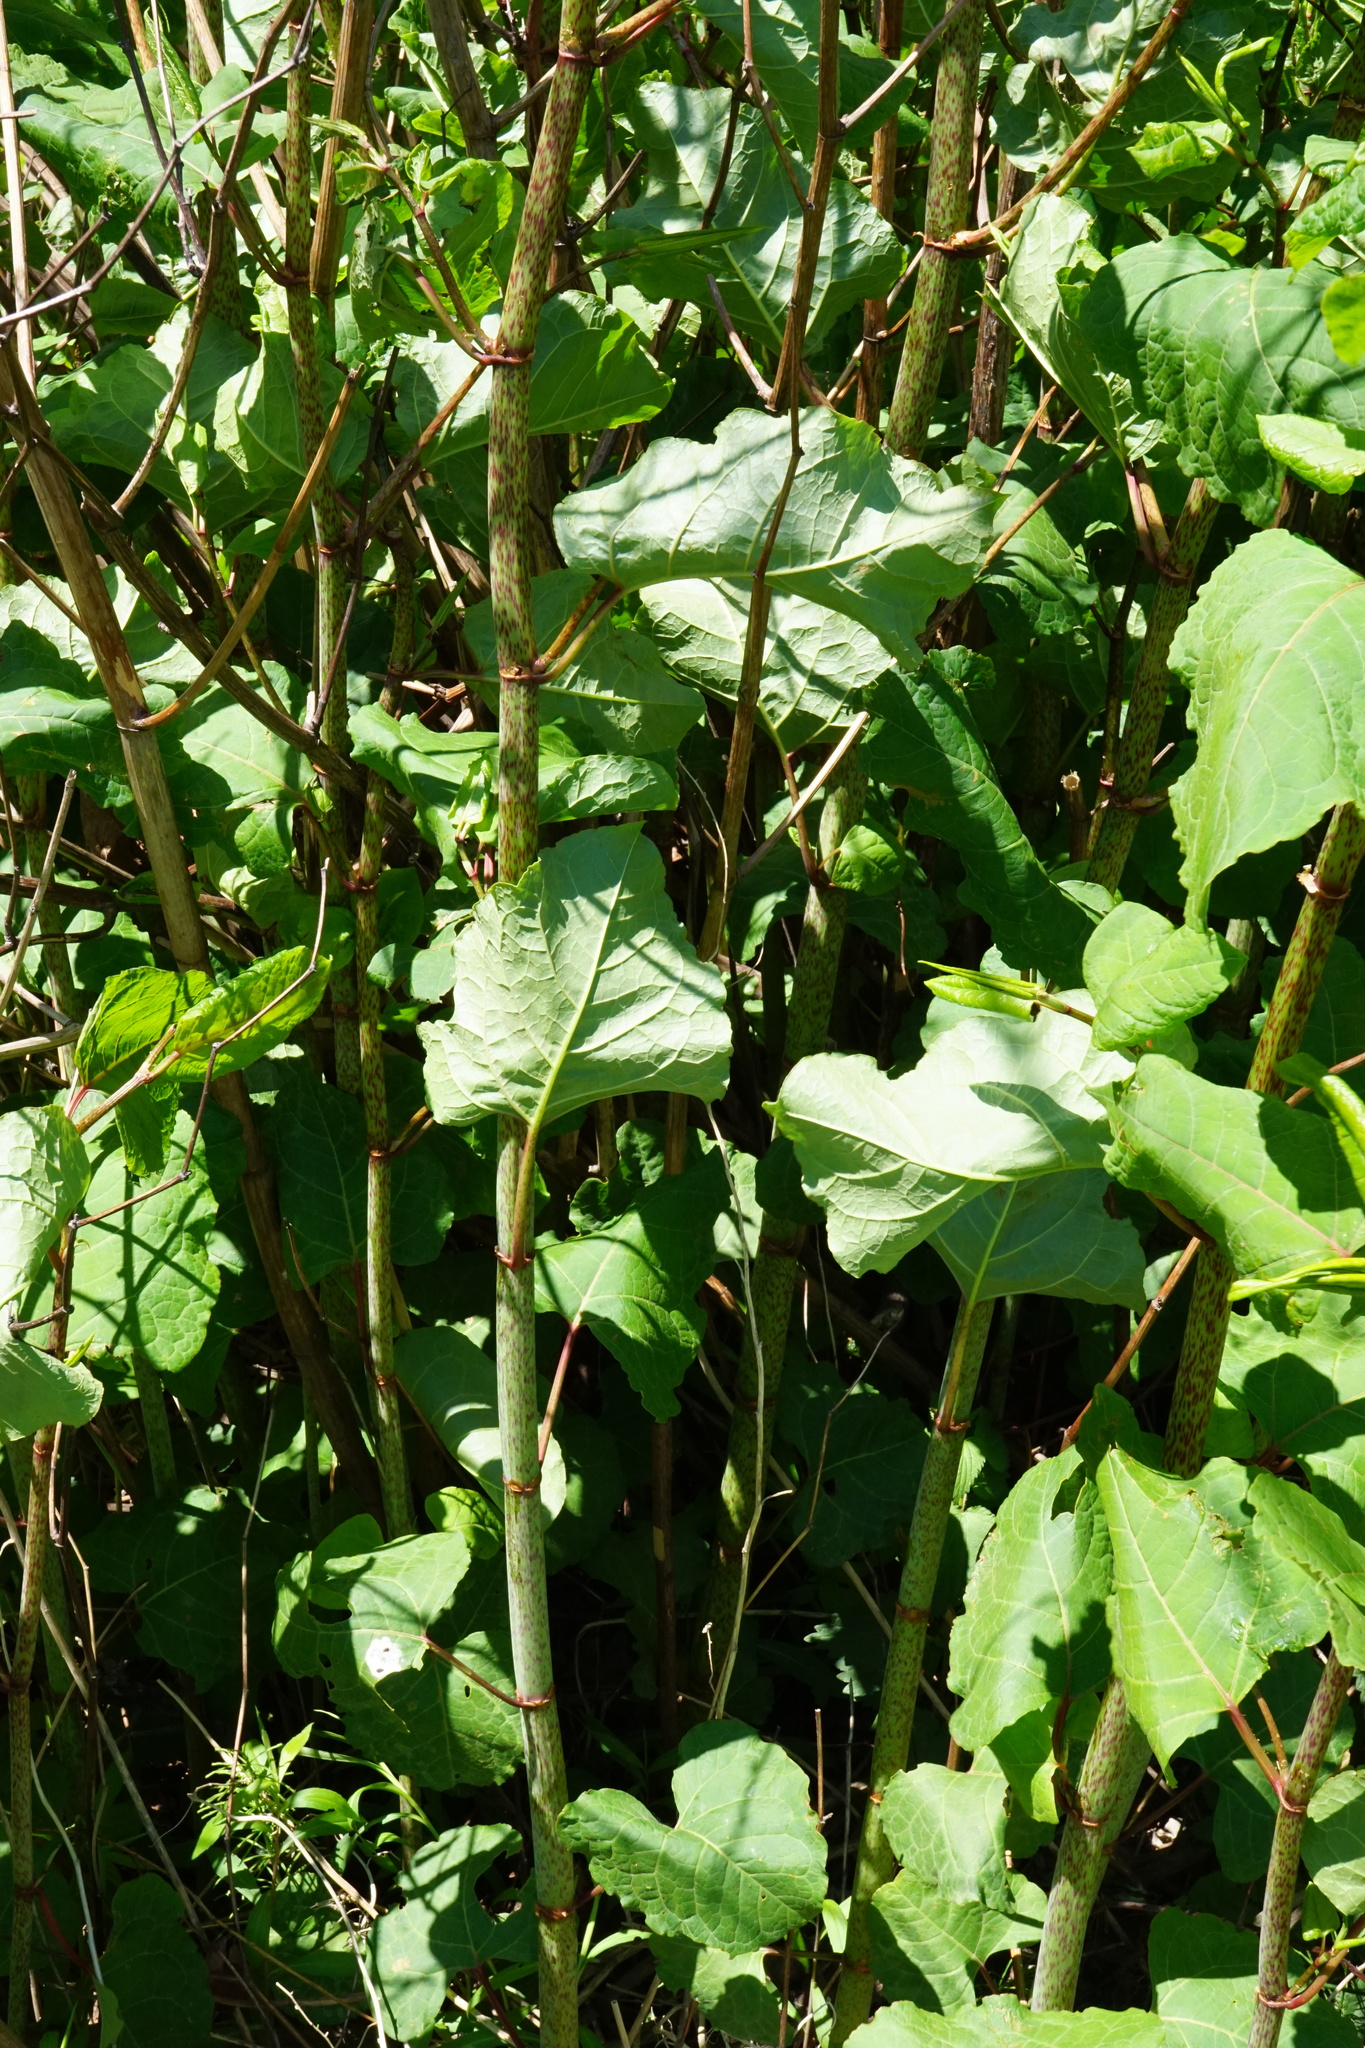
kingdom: Plantae
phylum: Tracheophyta
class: Magnoliopsida
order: Caryophyllales
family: Polygonaceae
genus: Reynoutria
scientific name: Reynoutria bohemica
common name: Bohemian knotweed
